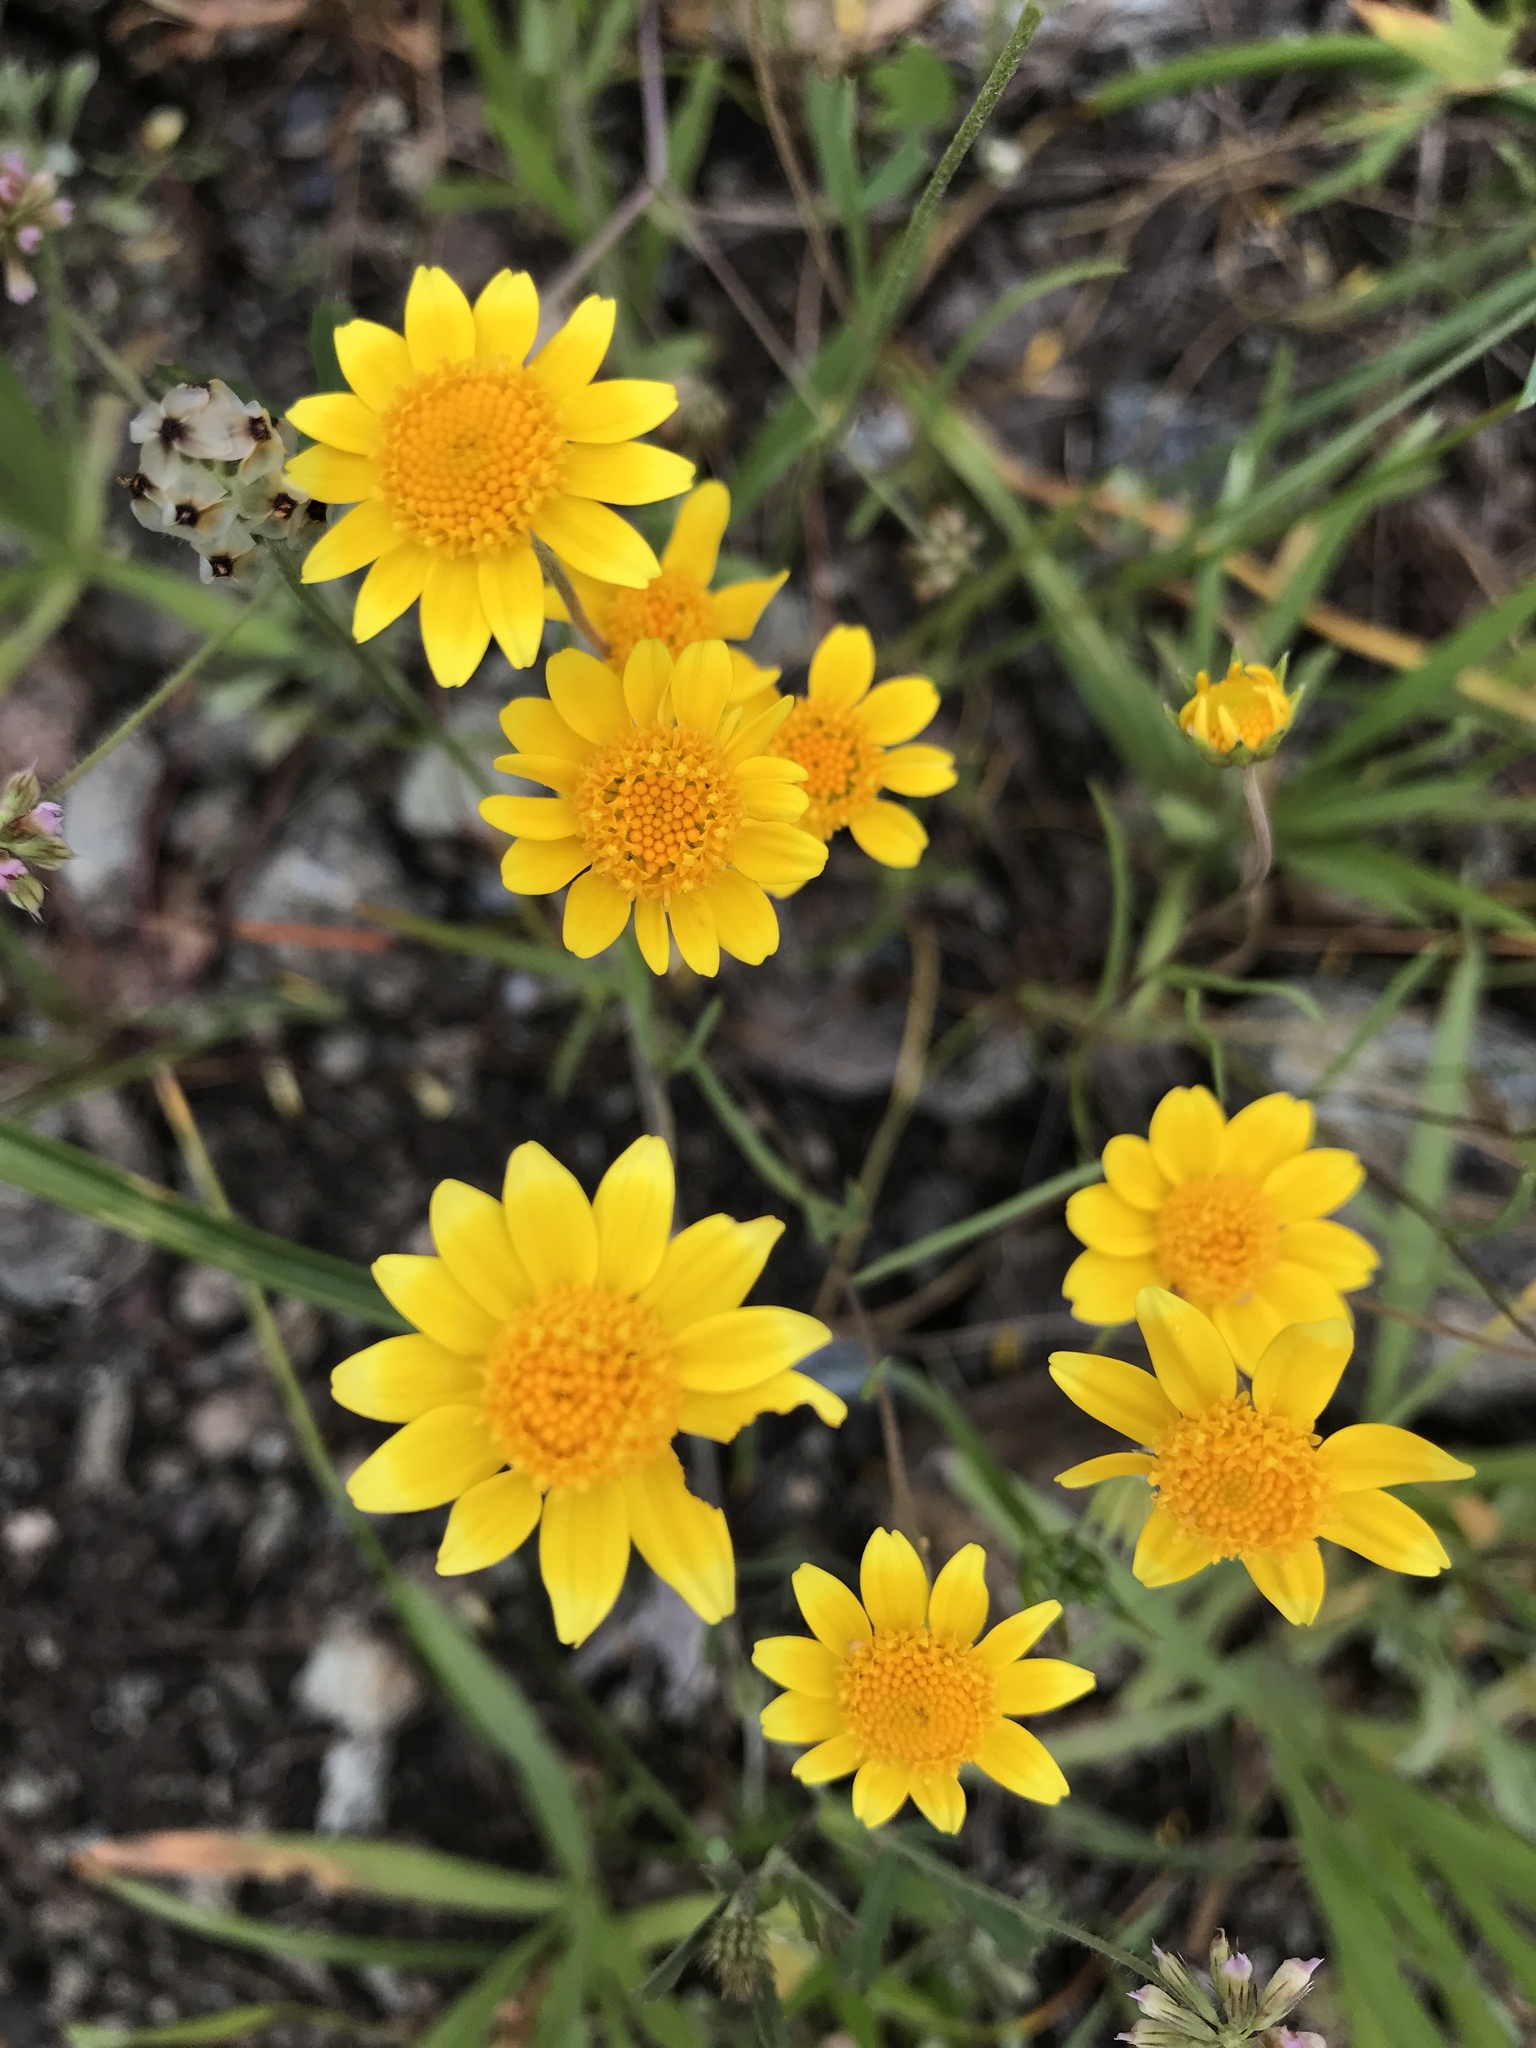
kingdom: Plantae
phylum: Tracheophyta
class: Magnoliopsida
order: Asterales
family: Asteraceae
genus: Lasthenia
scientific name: Lasthenia gracilis
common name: Common goldfields
